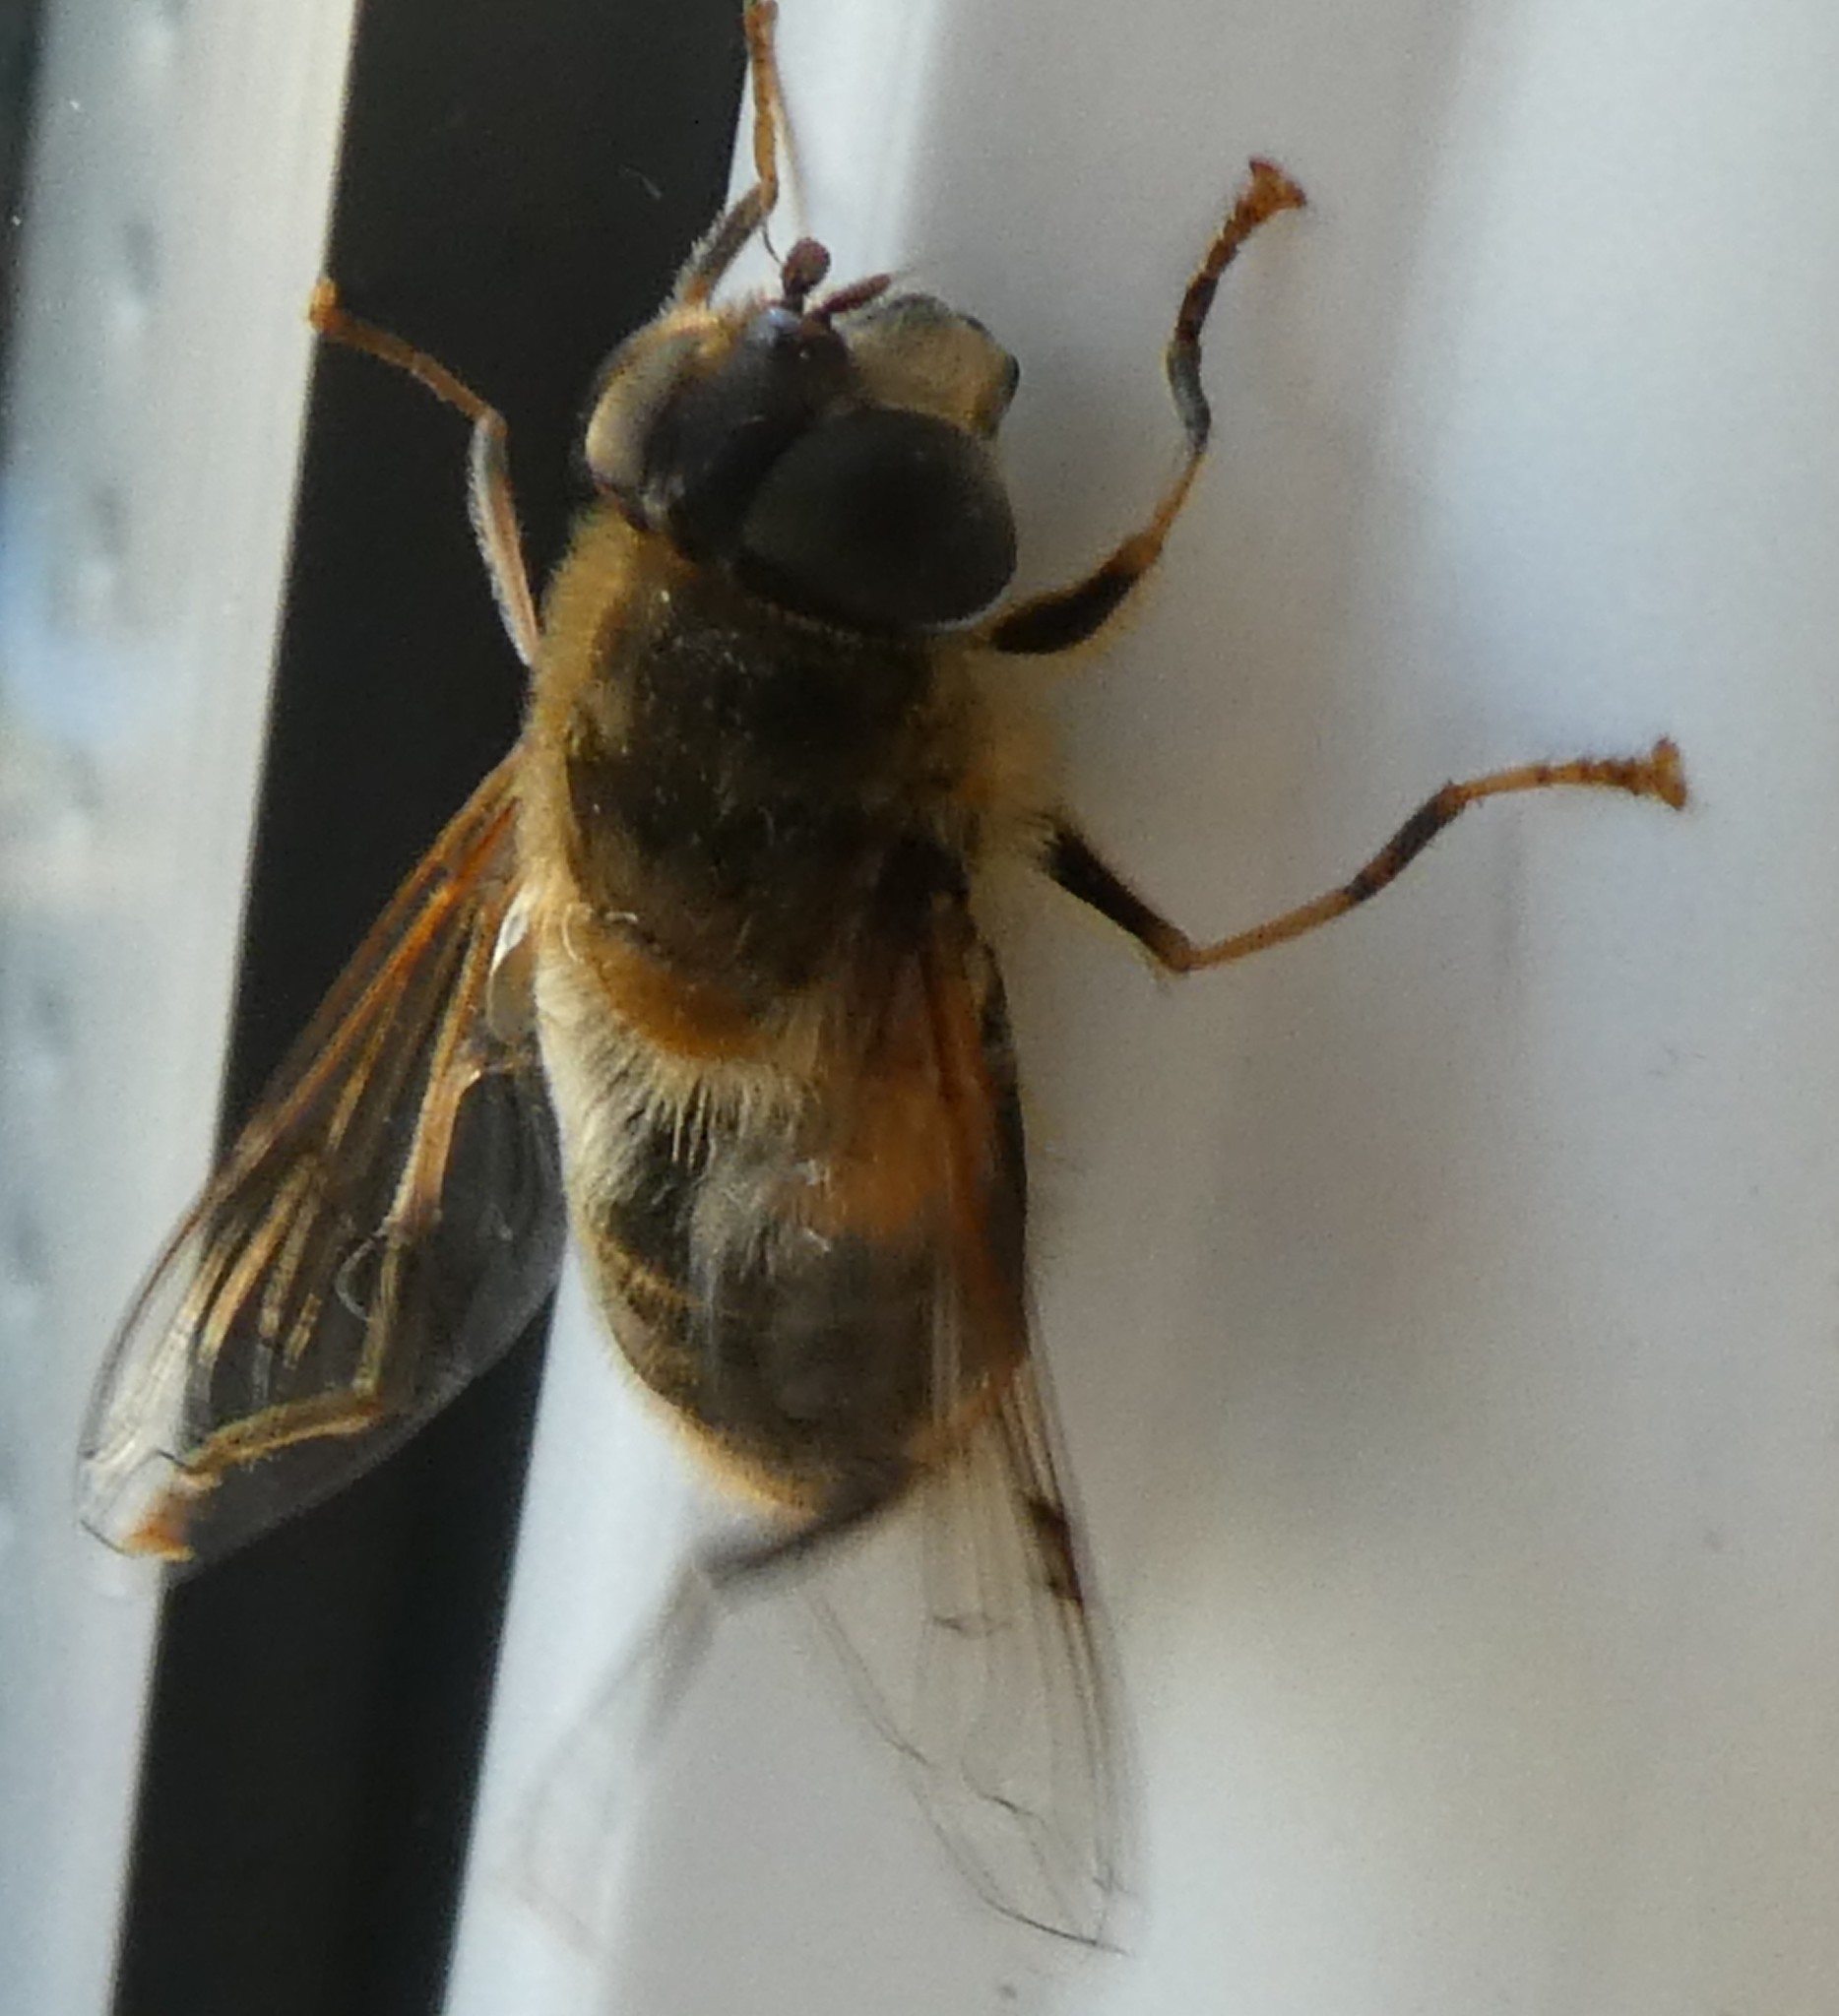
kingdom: Animalia
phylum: Arthropoda
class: Insecta
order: Diptera
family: Syrphidae
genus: Eristalis
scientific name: Eristalis pertinax
